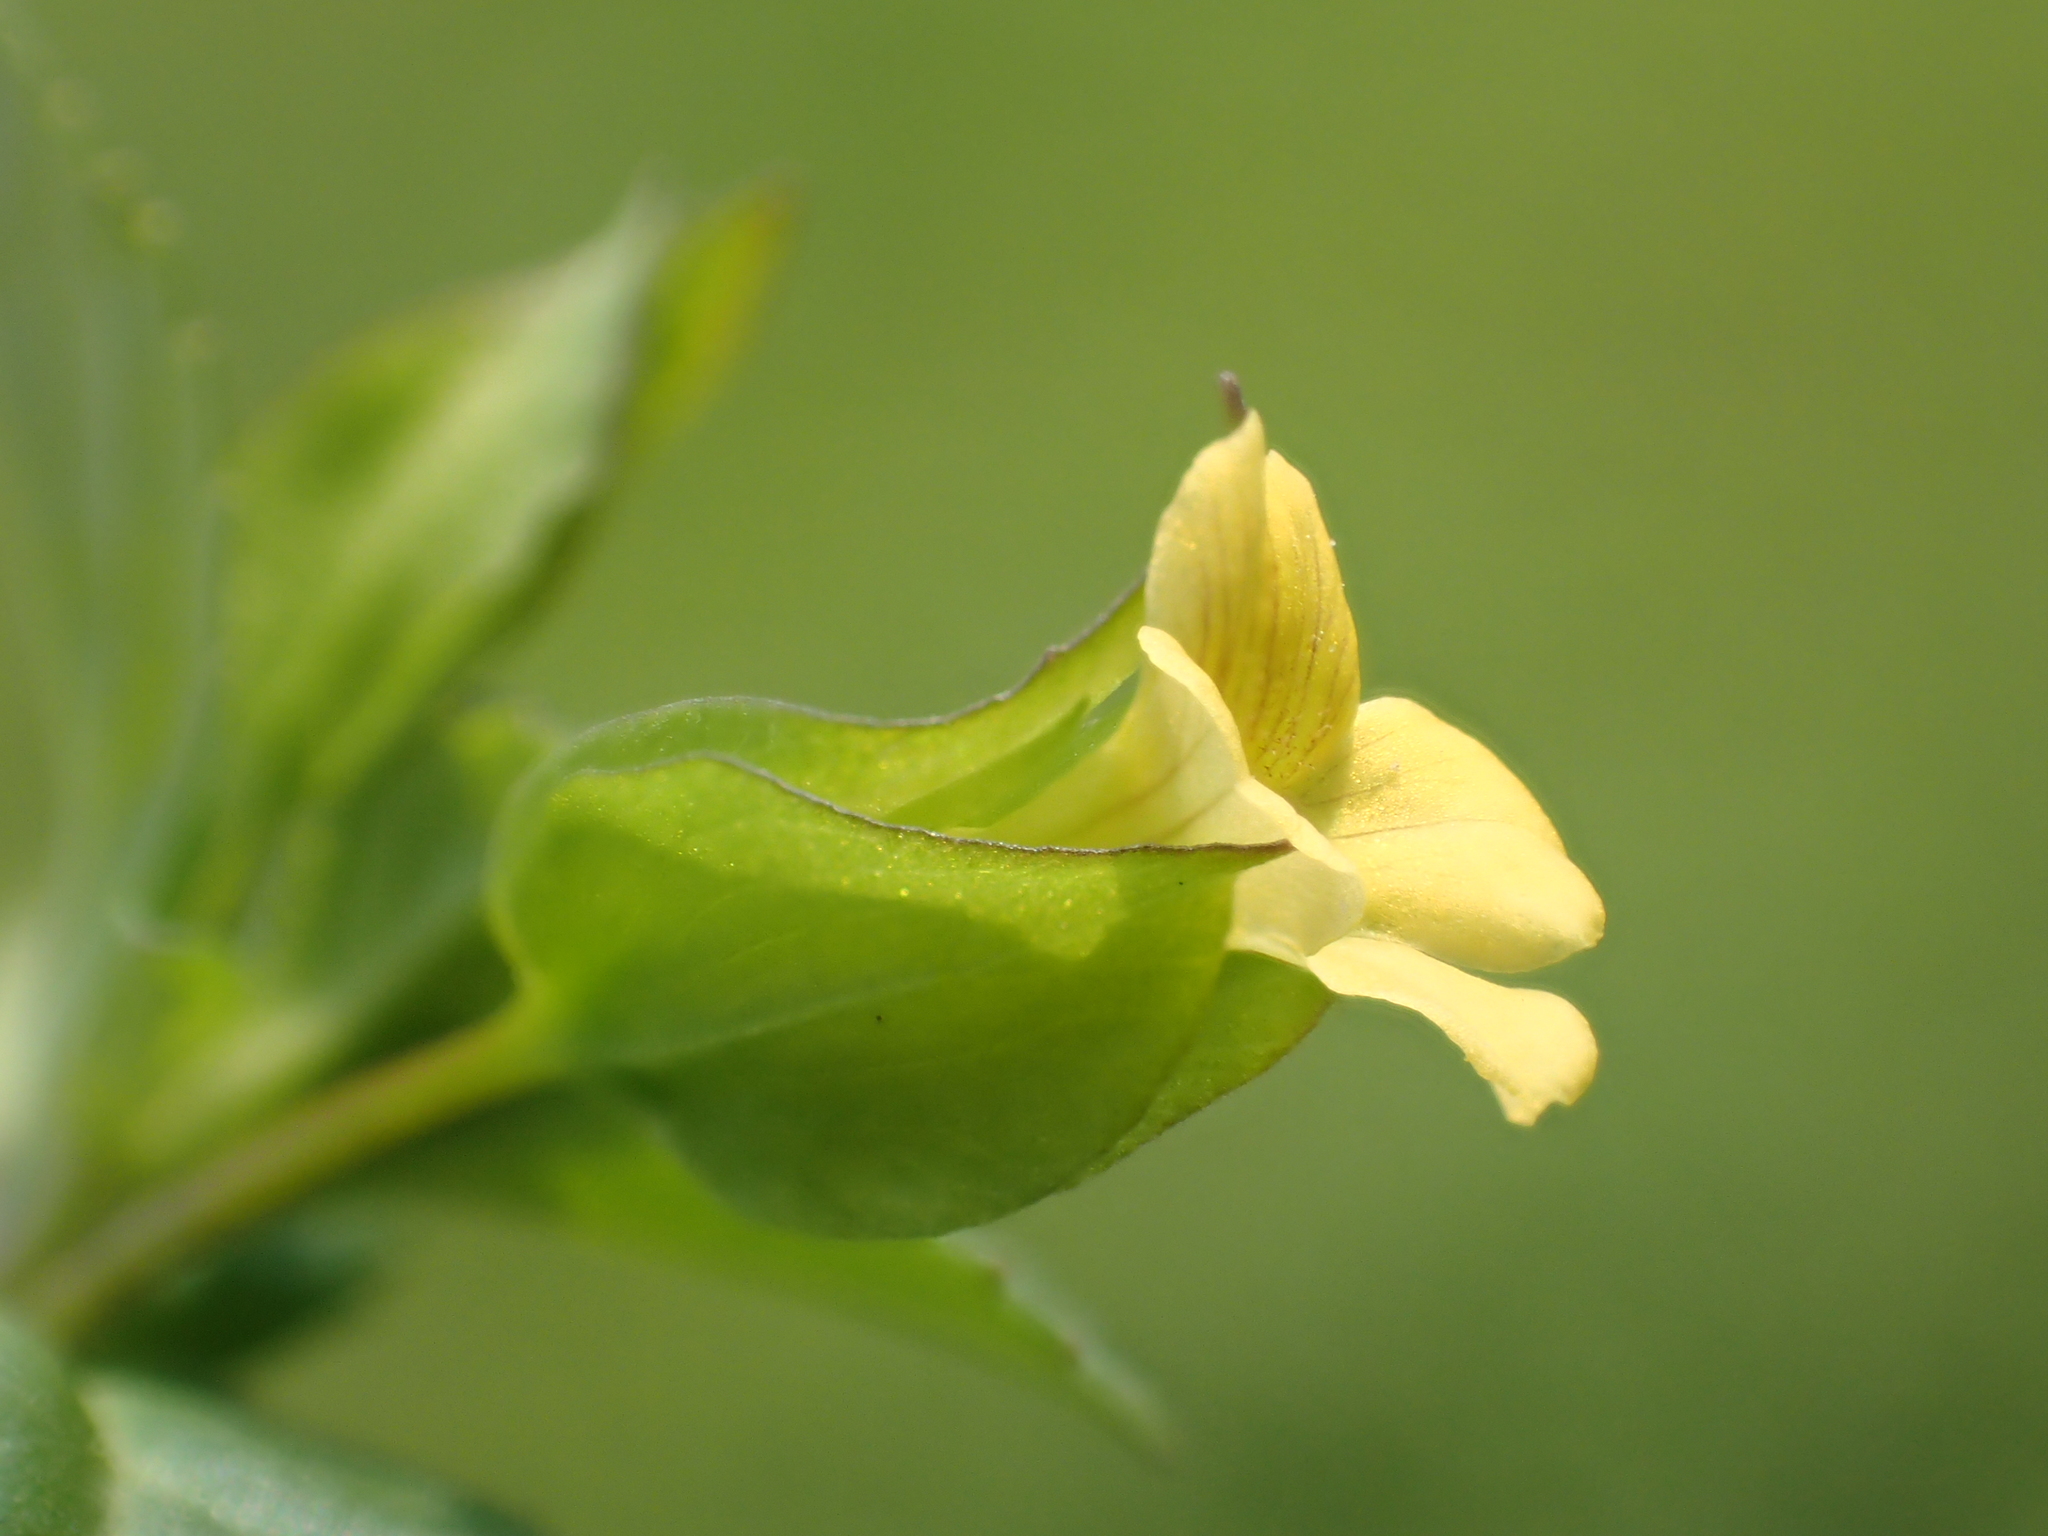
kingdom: Plantae
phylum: Tracheophyta
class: Magnoliopsida
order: Lamiales
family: Plantaginaceae
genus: Mecardonia
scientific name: Mecardonia procumbens
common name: Baby jump-up
